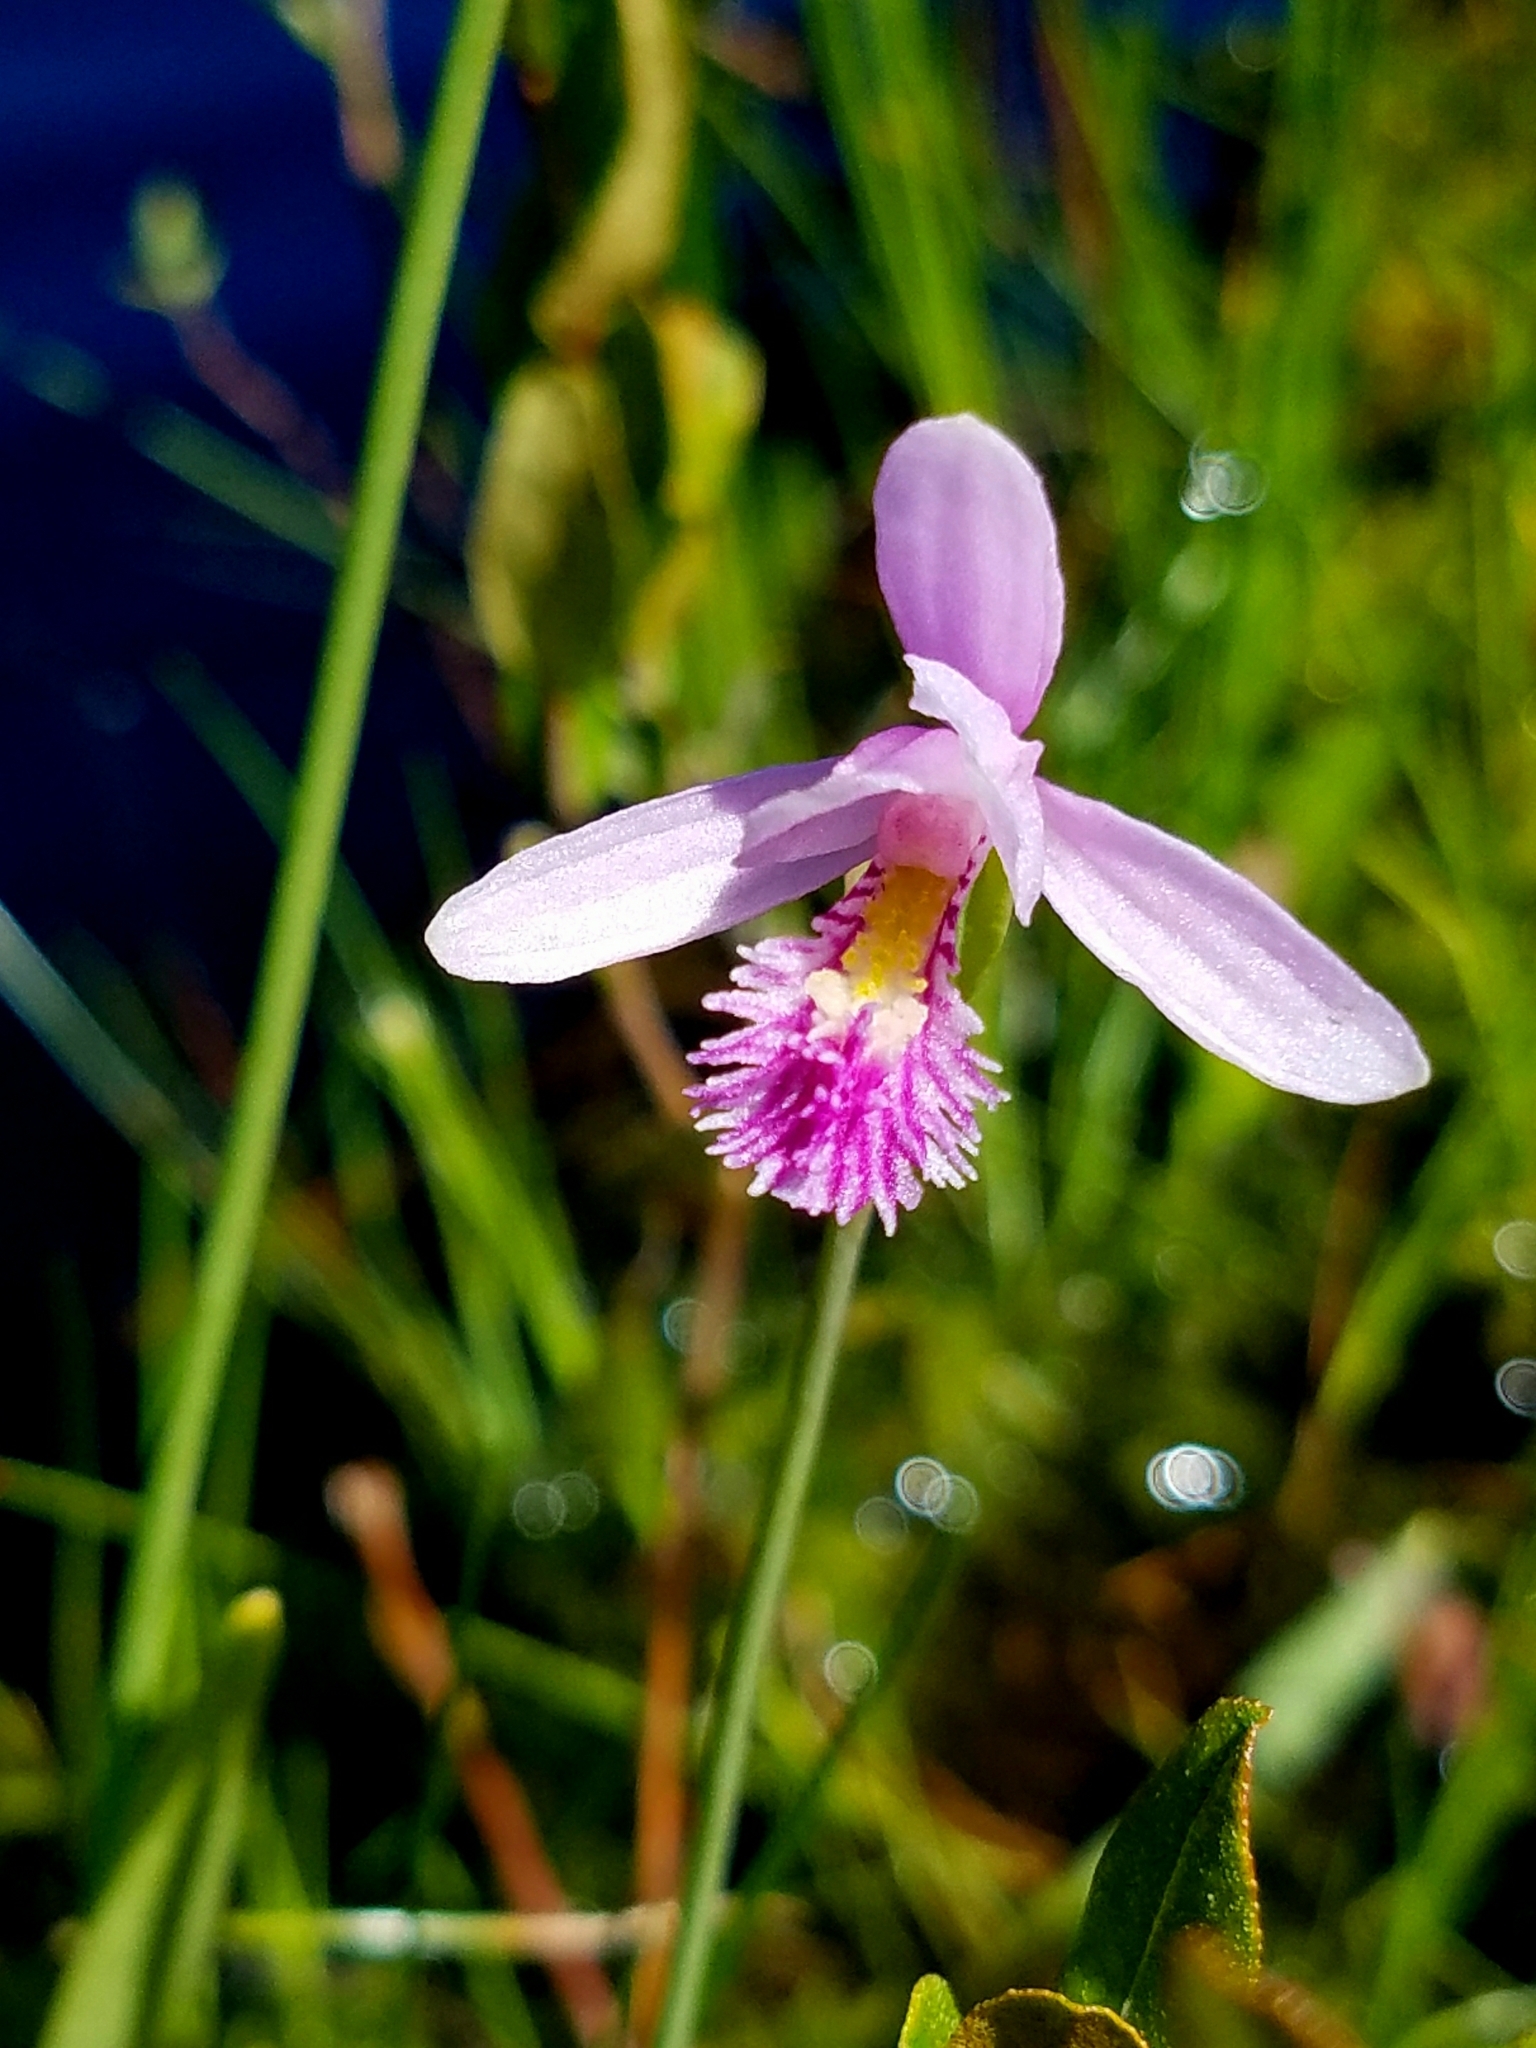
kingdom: Plantae
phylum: Tracheophyta
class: Liliopsida
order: Asparagales
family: Orchidaceae
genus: Pogonia
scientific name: Pogonia ophioglossoides
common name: Rose pogonia
